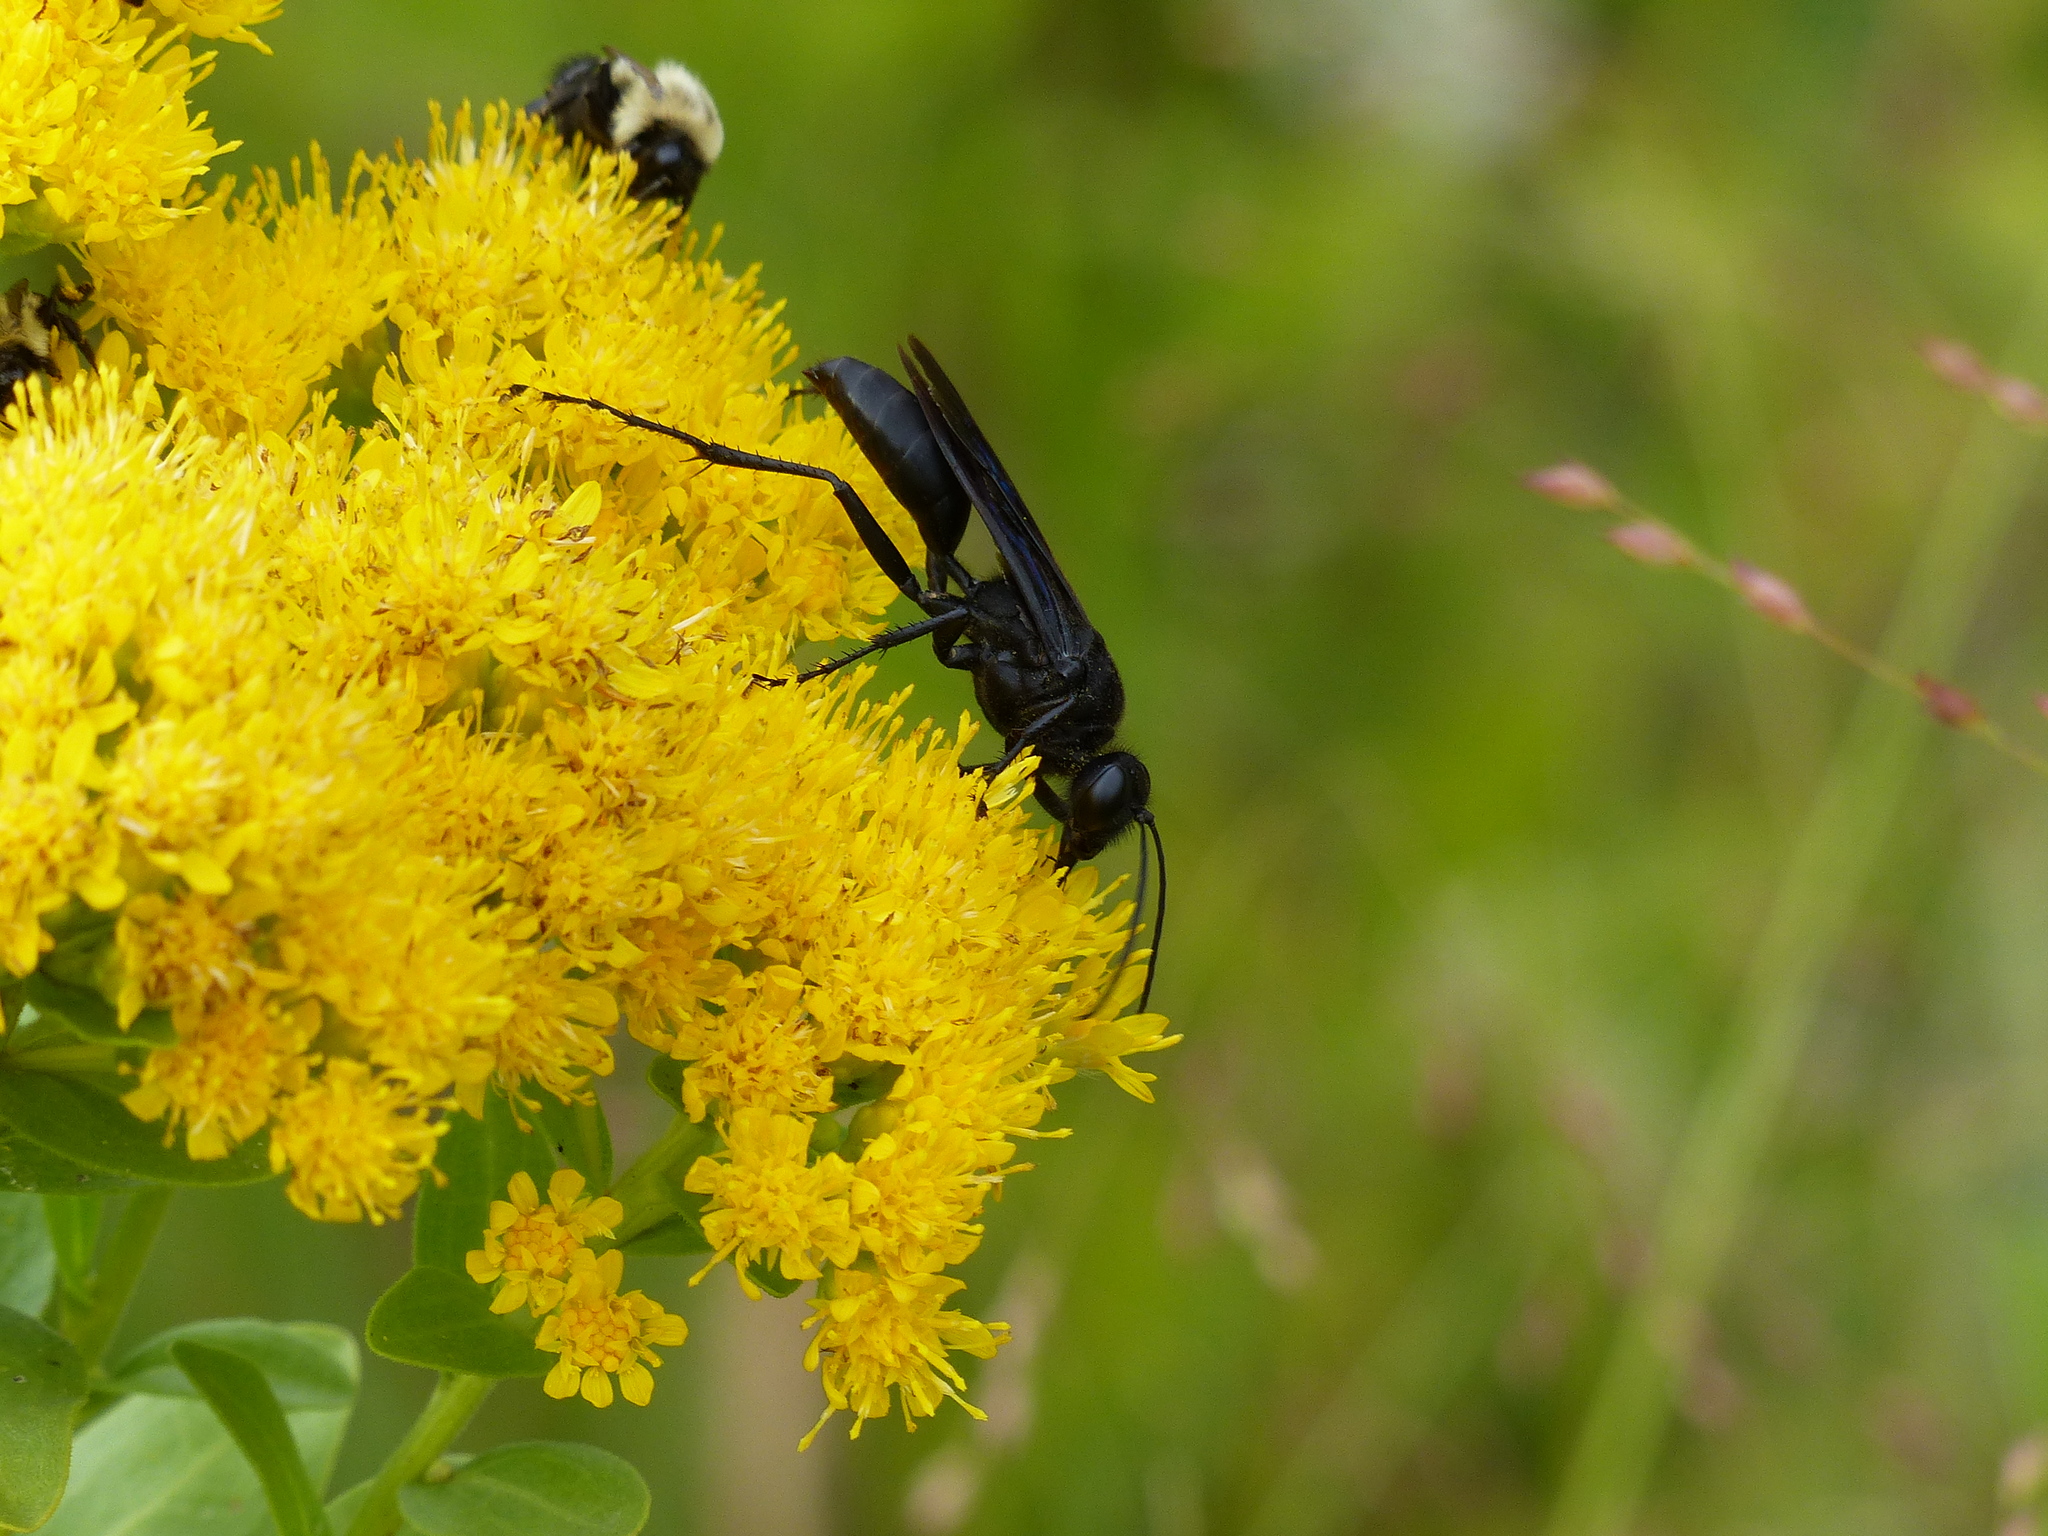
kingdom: Animalia
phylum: Arthropoda
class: Insecta
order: Hymenoptera
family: Sphecidae
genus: Sphex
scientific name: Sphex pensylvanicus
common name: Great black digger wasp
